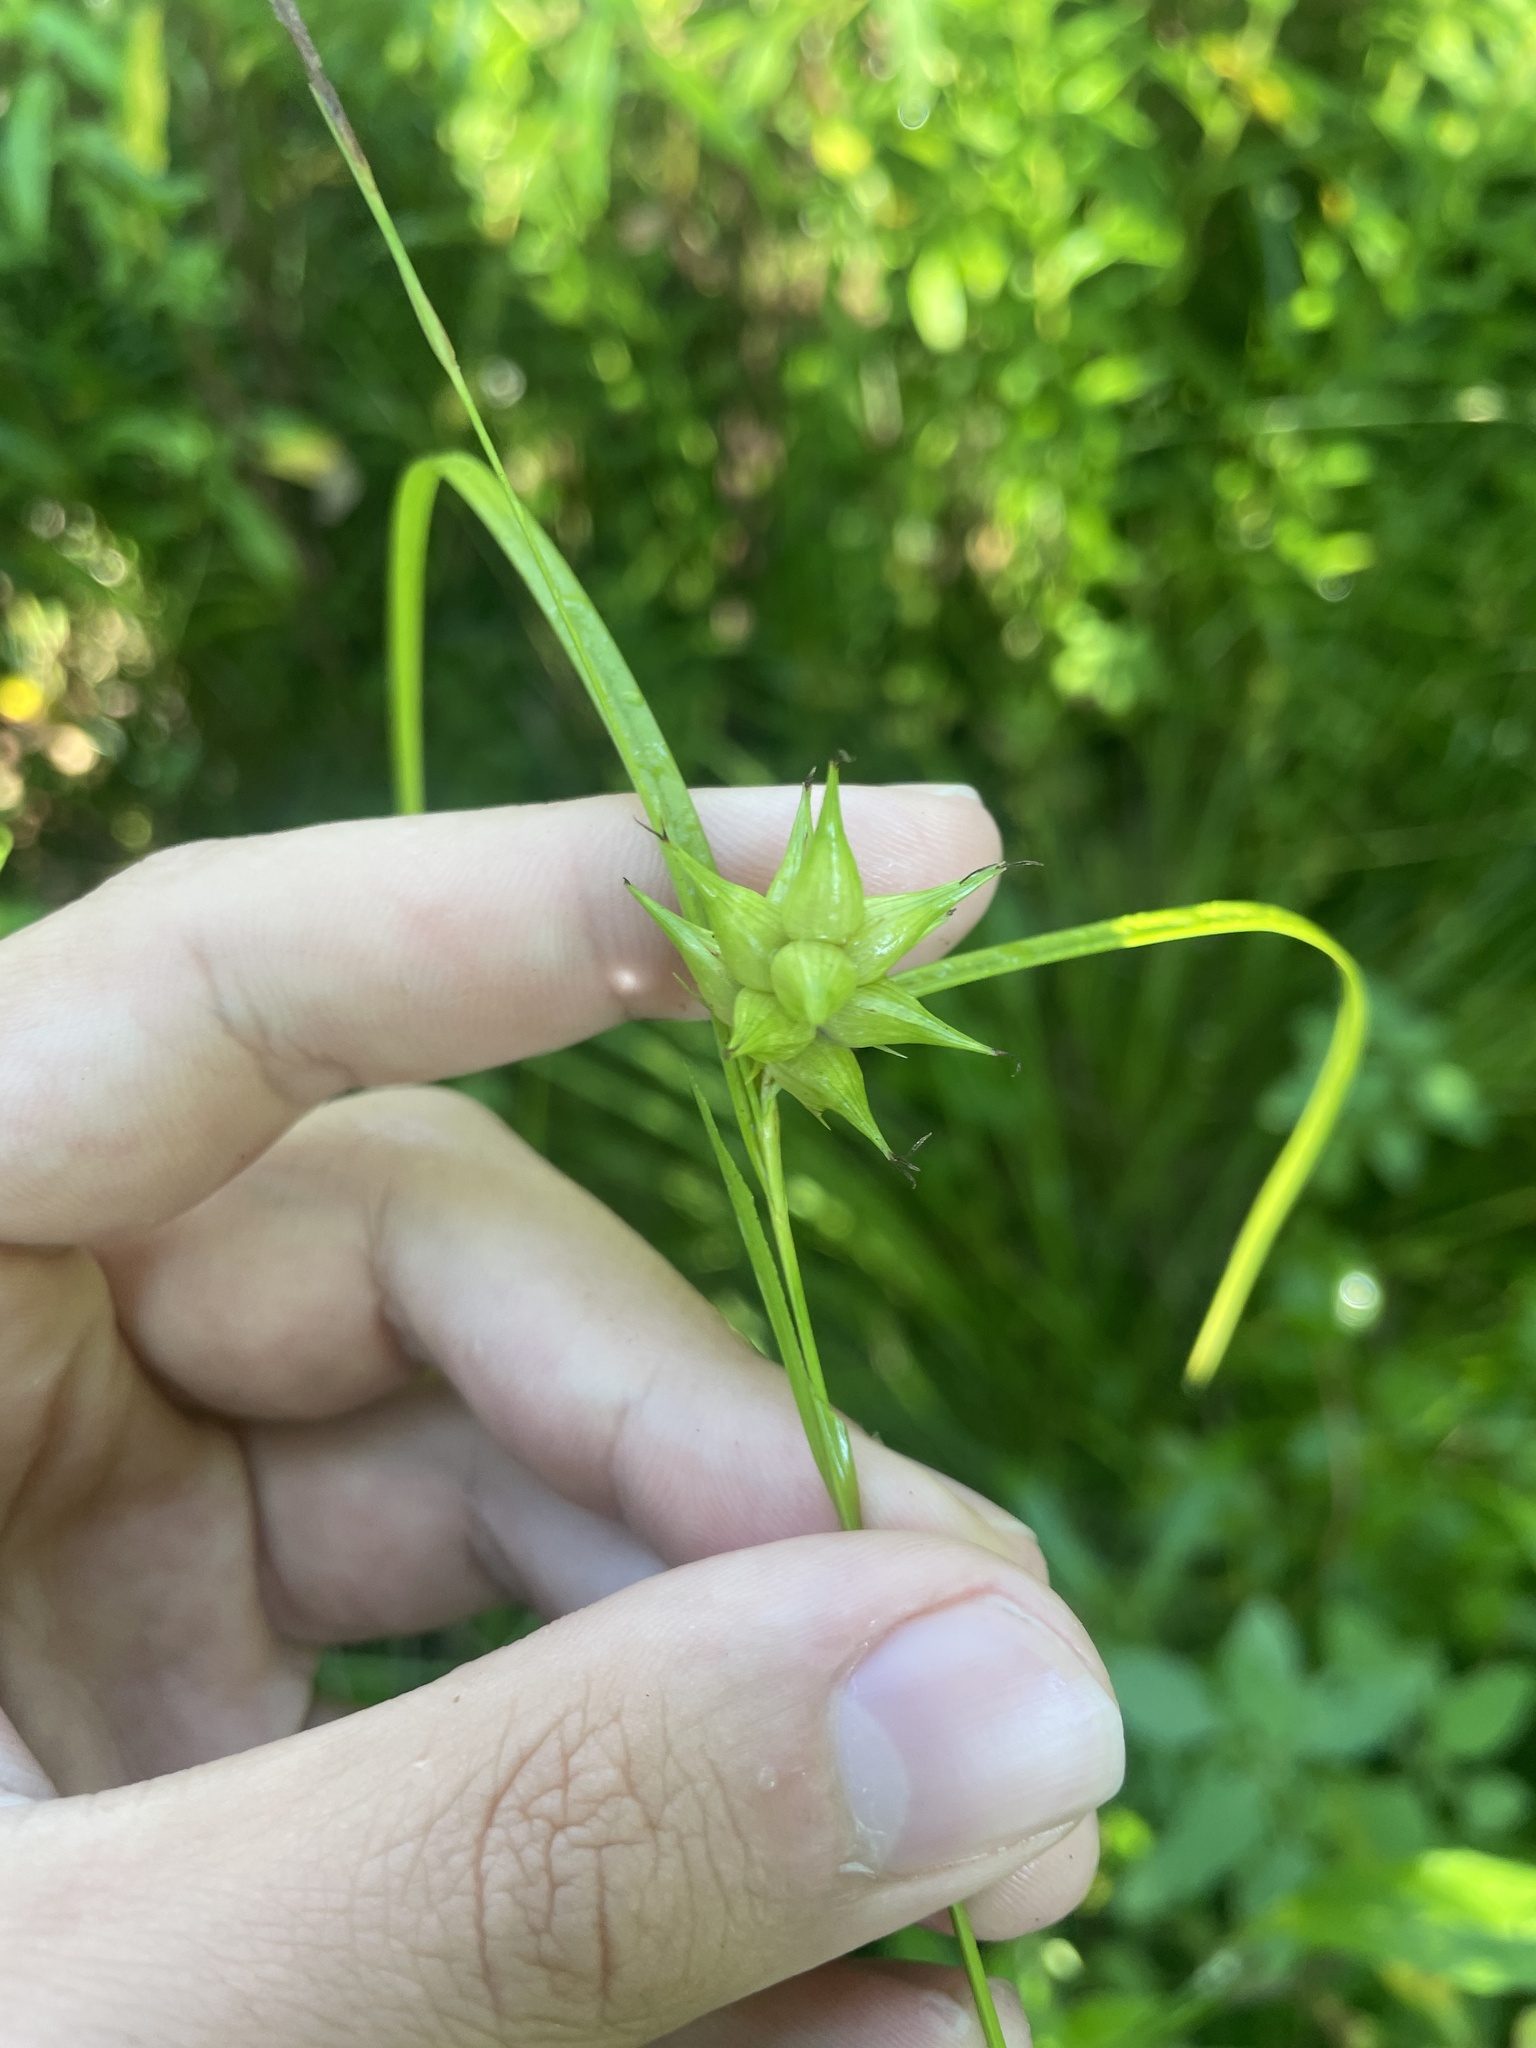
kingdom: Plantae
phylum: Tracheophyta
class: Liliopsida
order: Poales
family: Cyperaceae
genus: Carex
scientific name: Carex intumescens
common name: Greater bladder sedge
